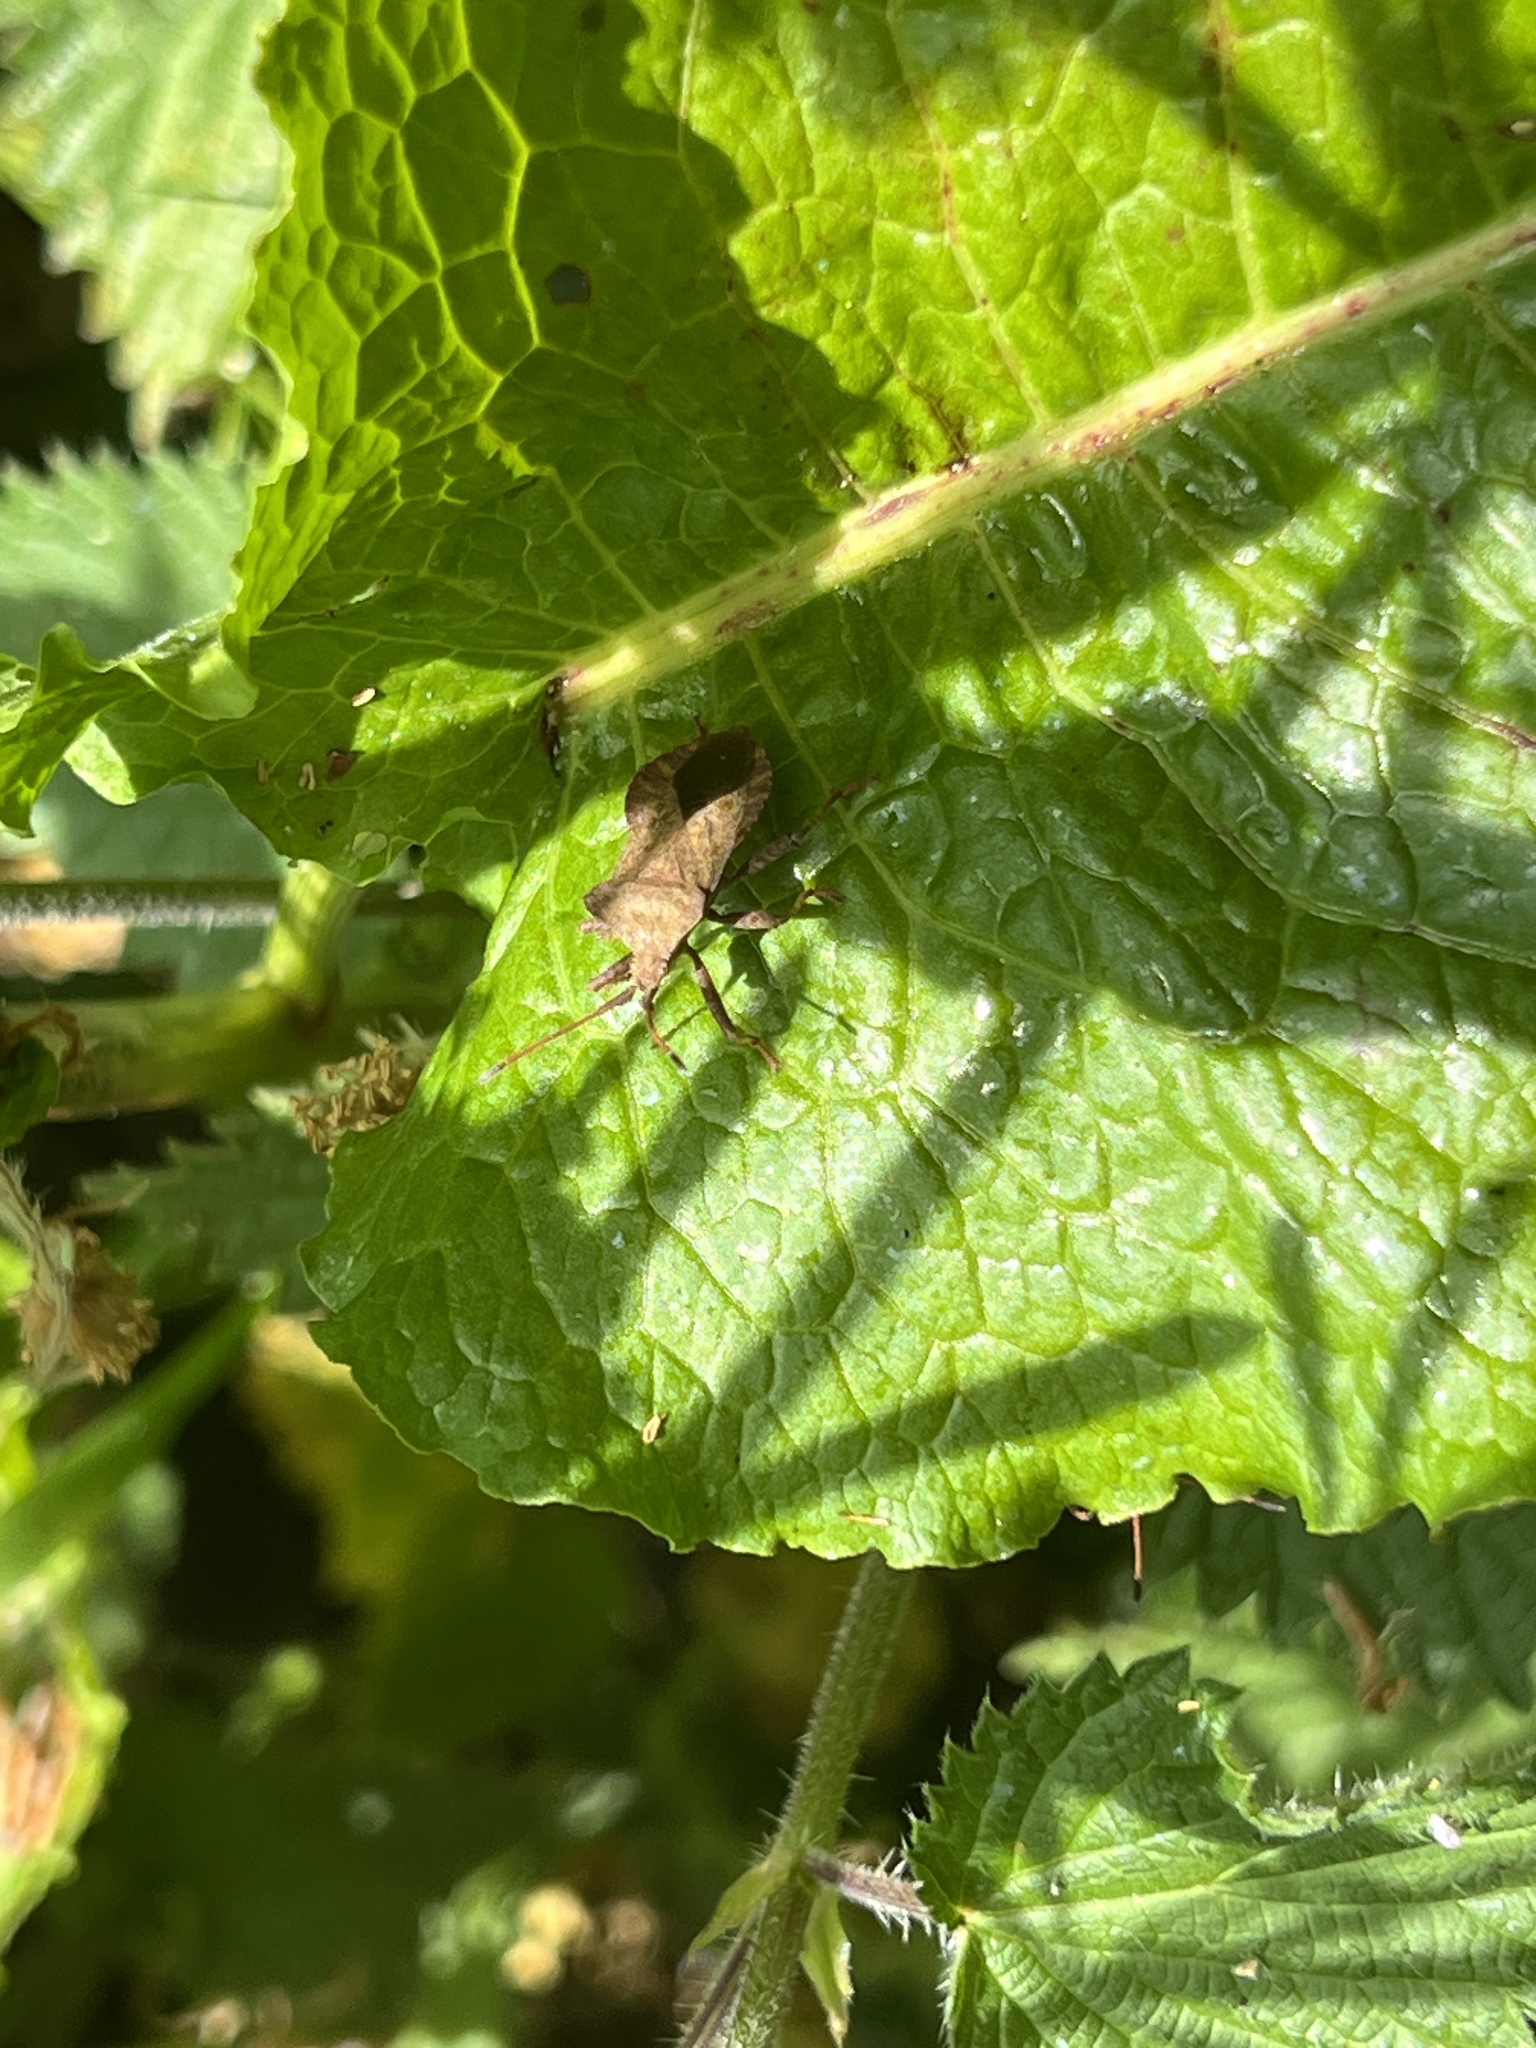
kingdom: Animalia
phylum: Arthropoda
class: Insecta
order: Hemiptera
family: Coreidae
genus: Coreus
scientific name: Coreus marginatus
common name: Dock bug
